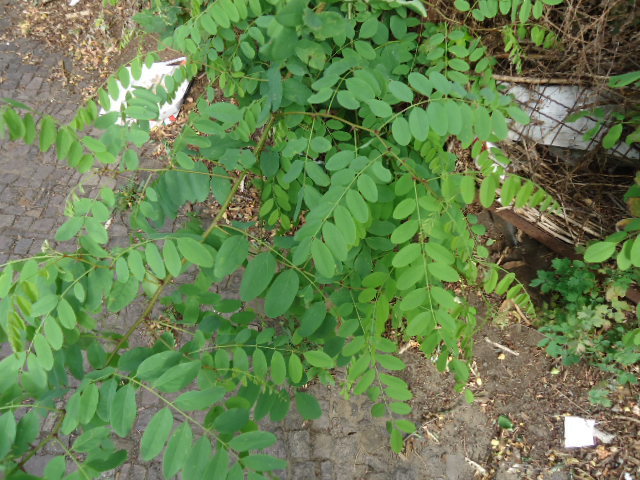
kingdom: Plantae
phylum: Tracheophyta
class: Magnoliopsida
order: Fabales
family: Fabaceae
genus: Robinia
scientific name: Robinia pseudoacacia
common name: Black locust
